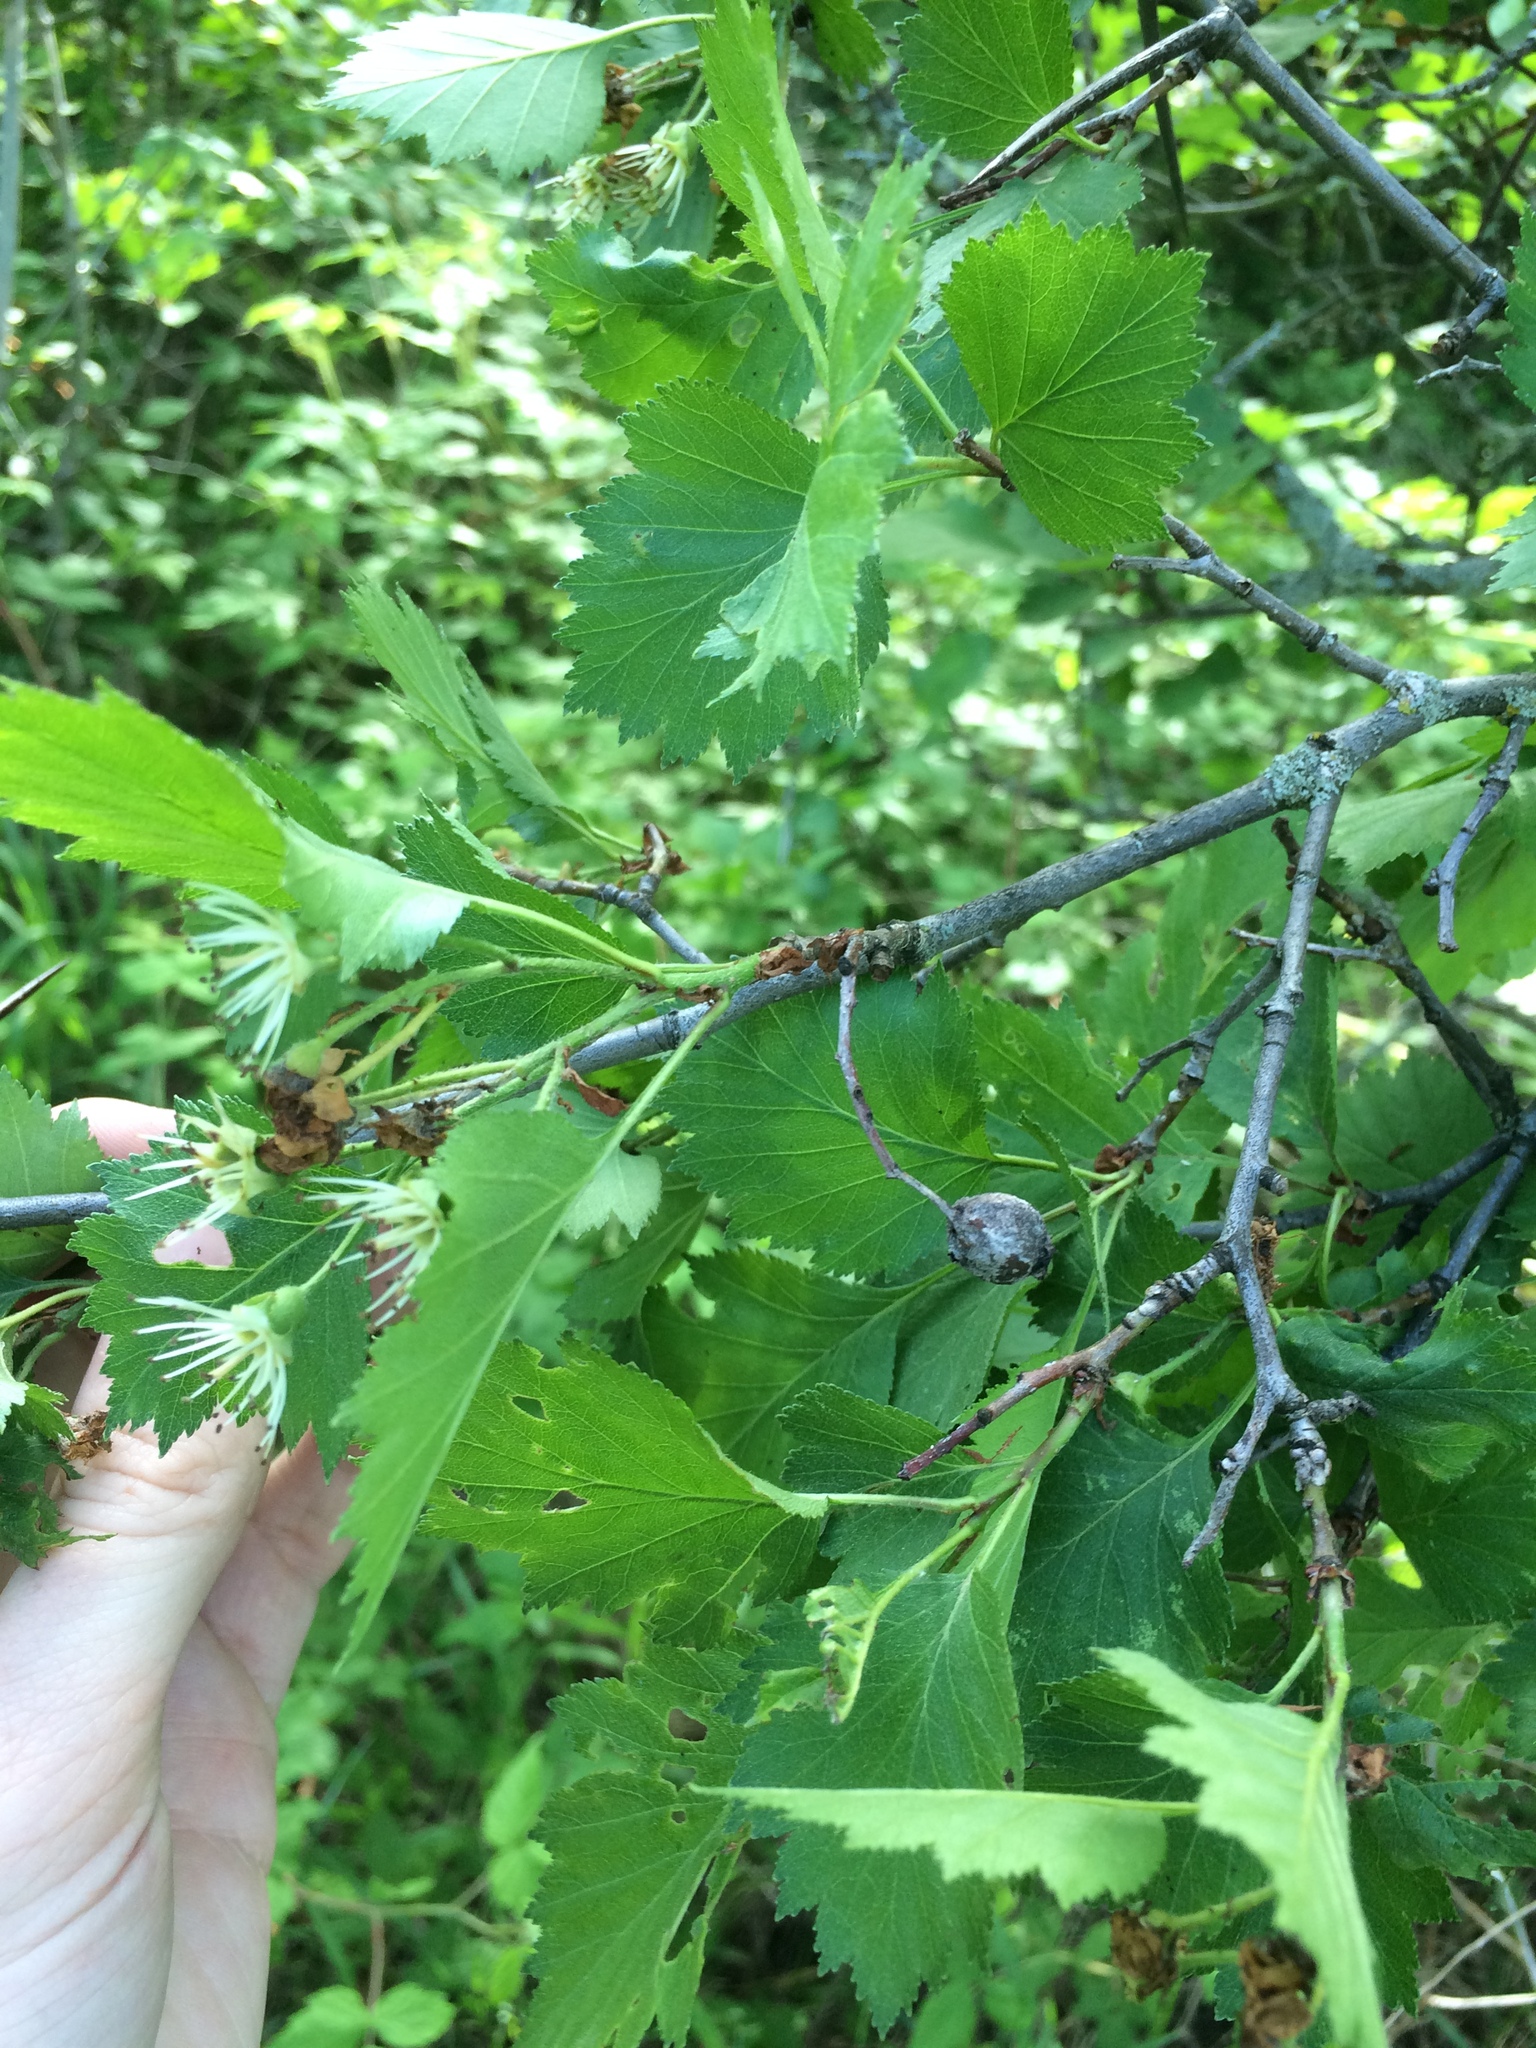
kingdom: Plantae
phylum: Tracheophyta
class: Magnoliopsida
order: Rosales
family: Rosaceae
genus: Crataegus
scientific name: Crataegus irrasa
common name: Unshorn hawthorn
